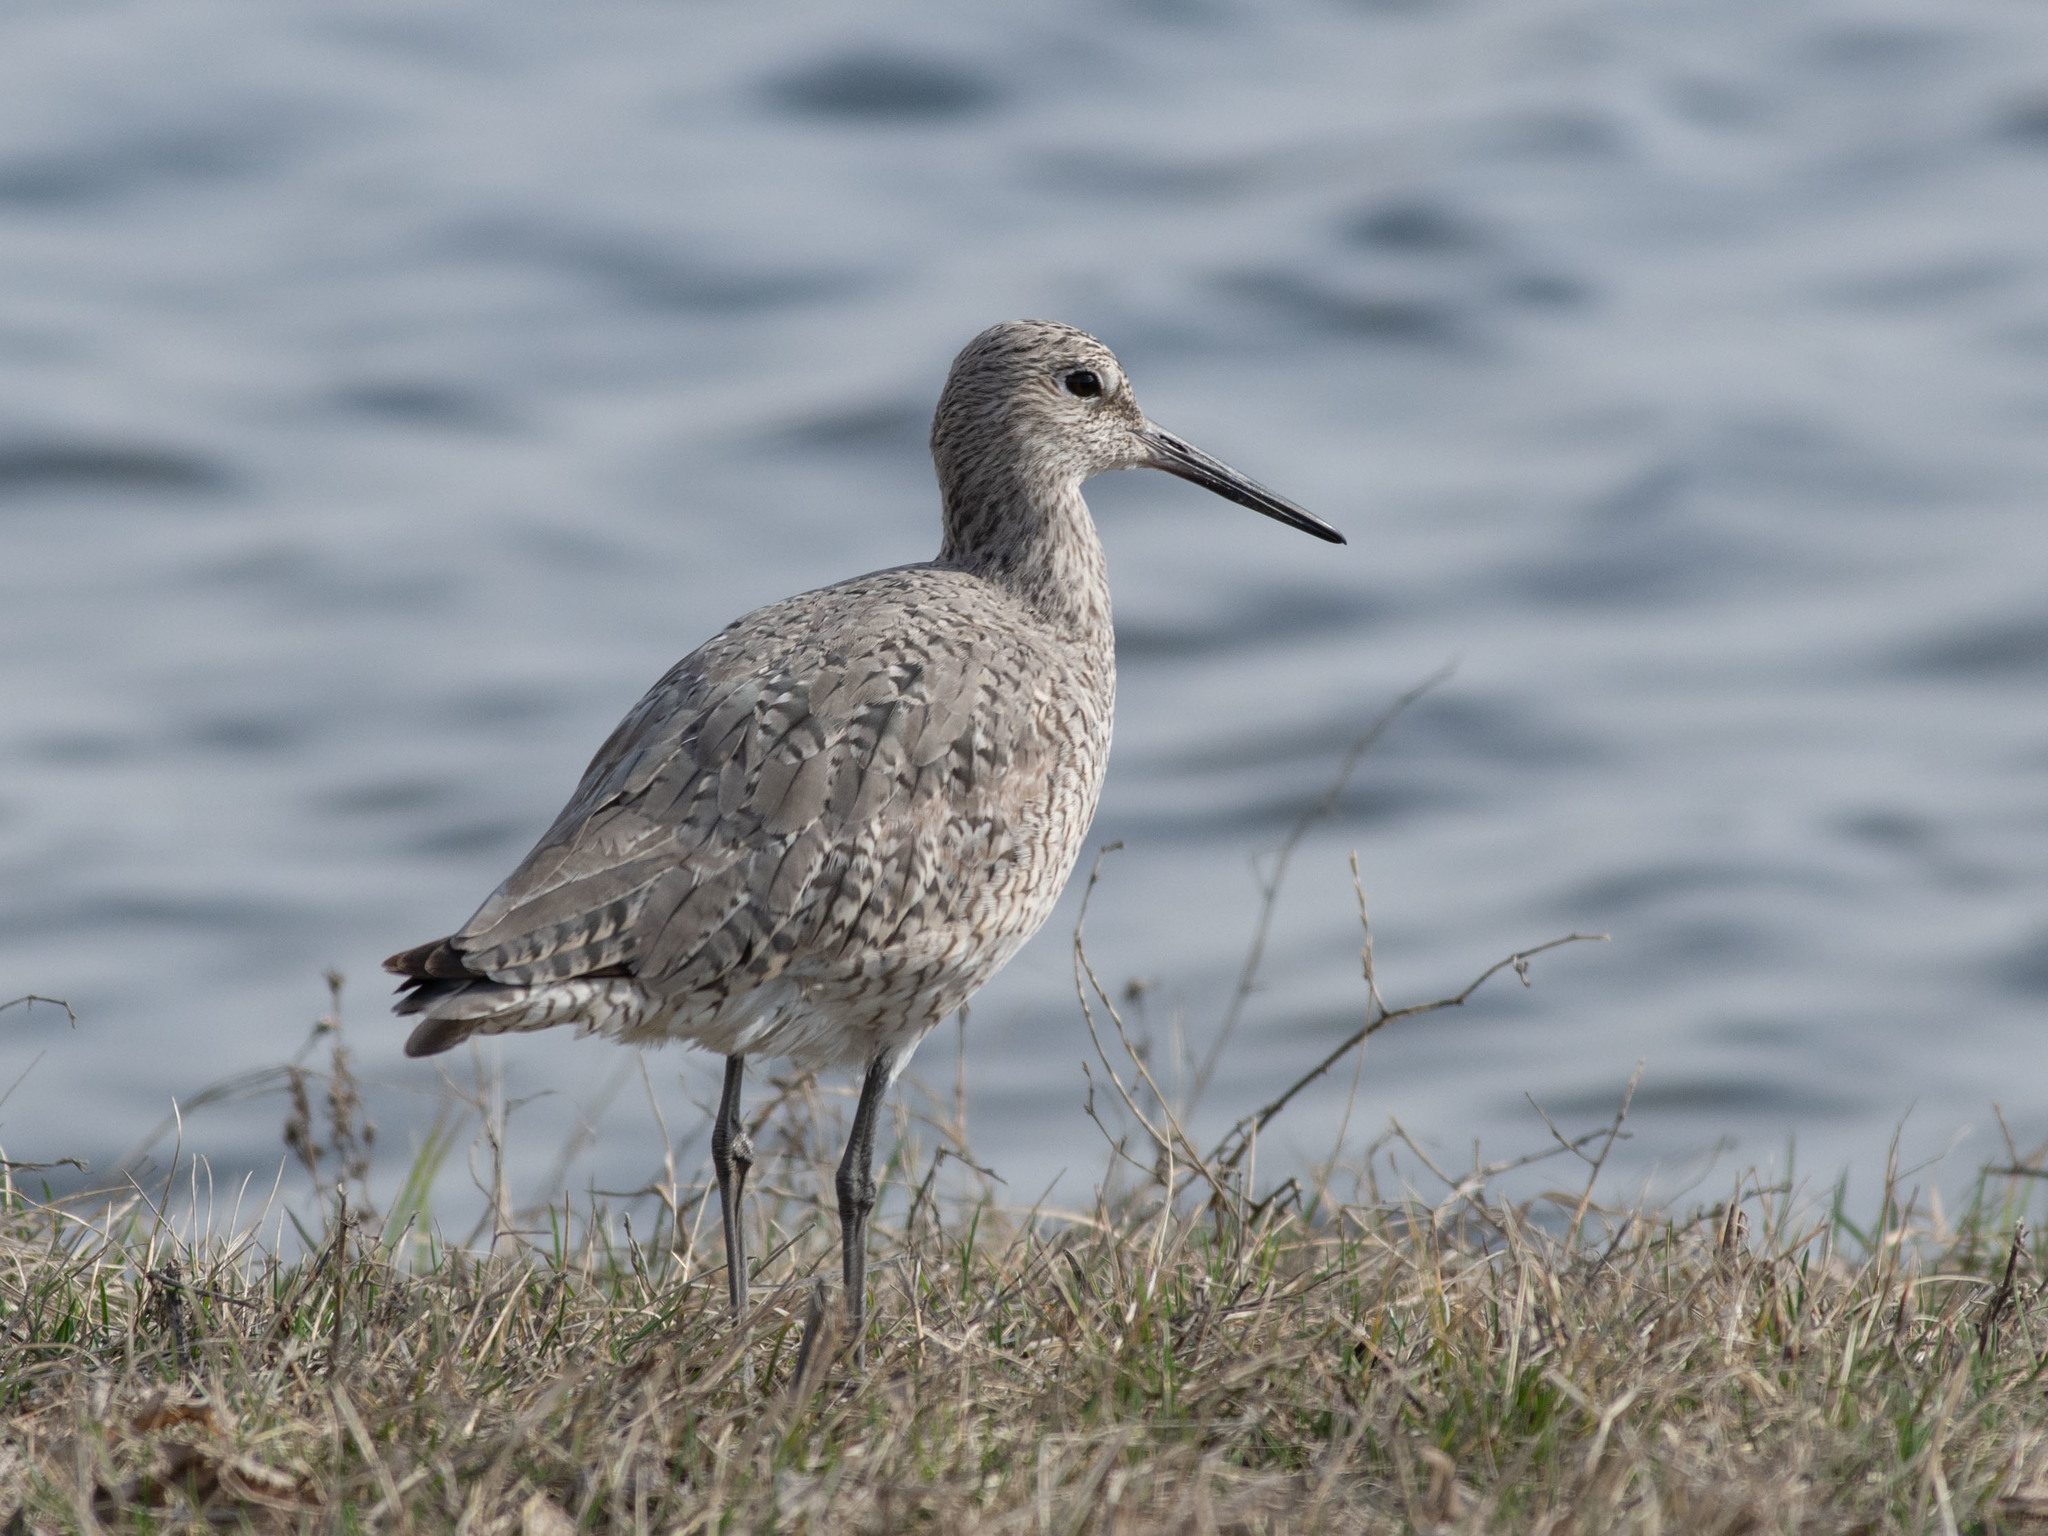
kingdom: Animalia
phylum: Chordata
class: Aves
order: Charadriiformes
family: Scolopacidae
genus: Tringa
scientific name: Tringa semipalmata
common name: Willet
